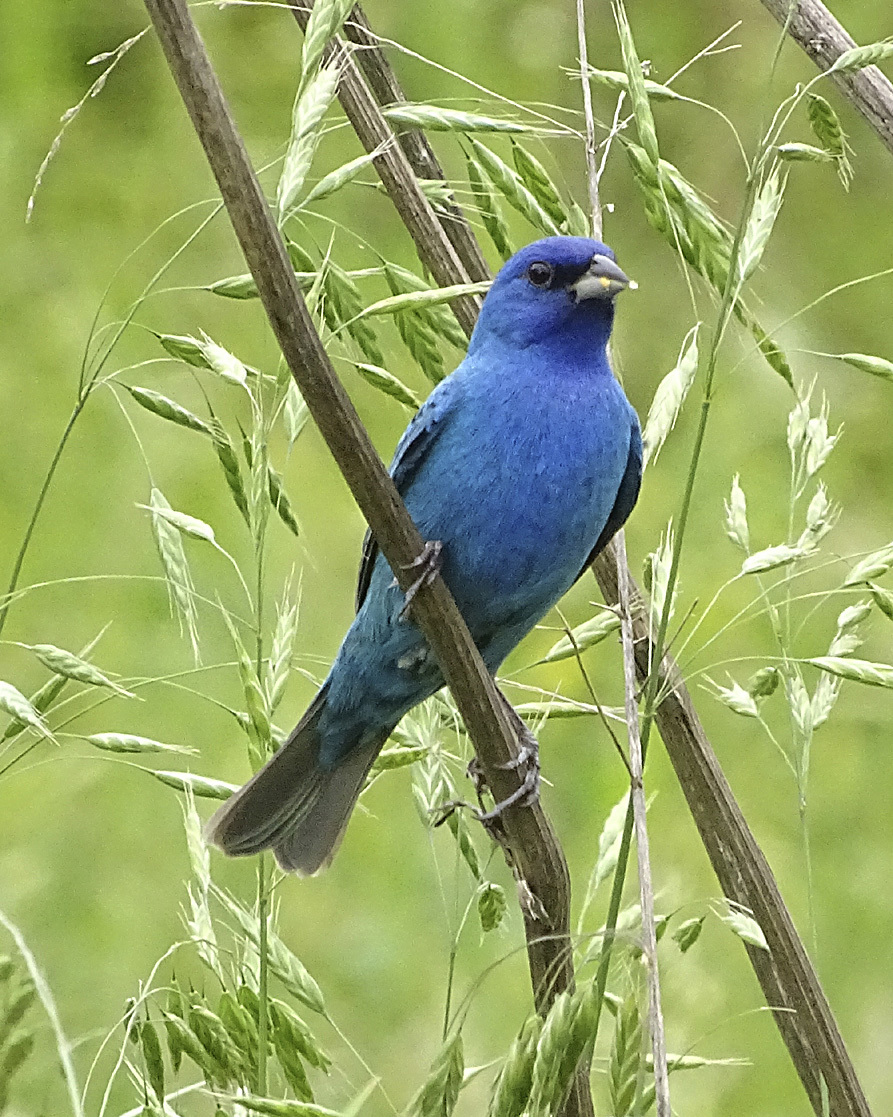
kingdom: Animalia
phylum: Chordata
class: Aves
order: Passeriformes
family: Cardinalidae
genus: Passerina
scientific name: Passerina cyanea
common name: Indigo bunting
